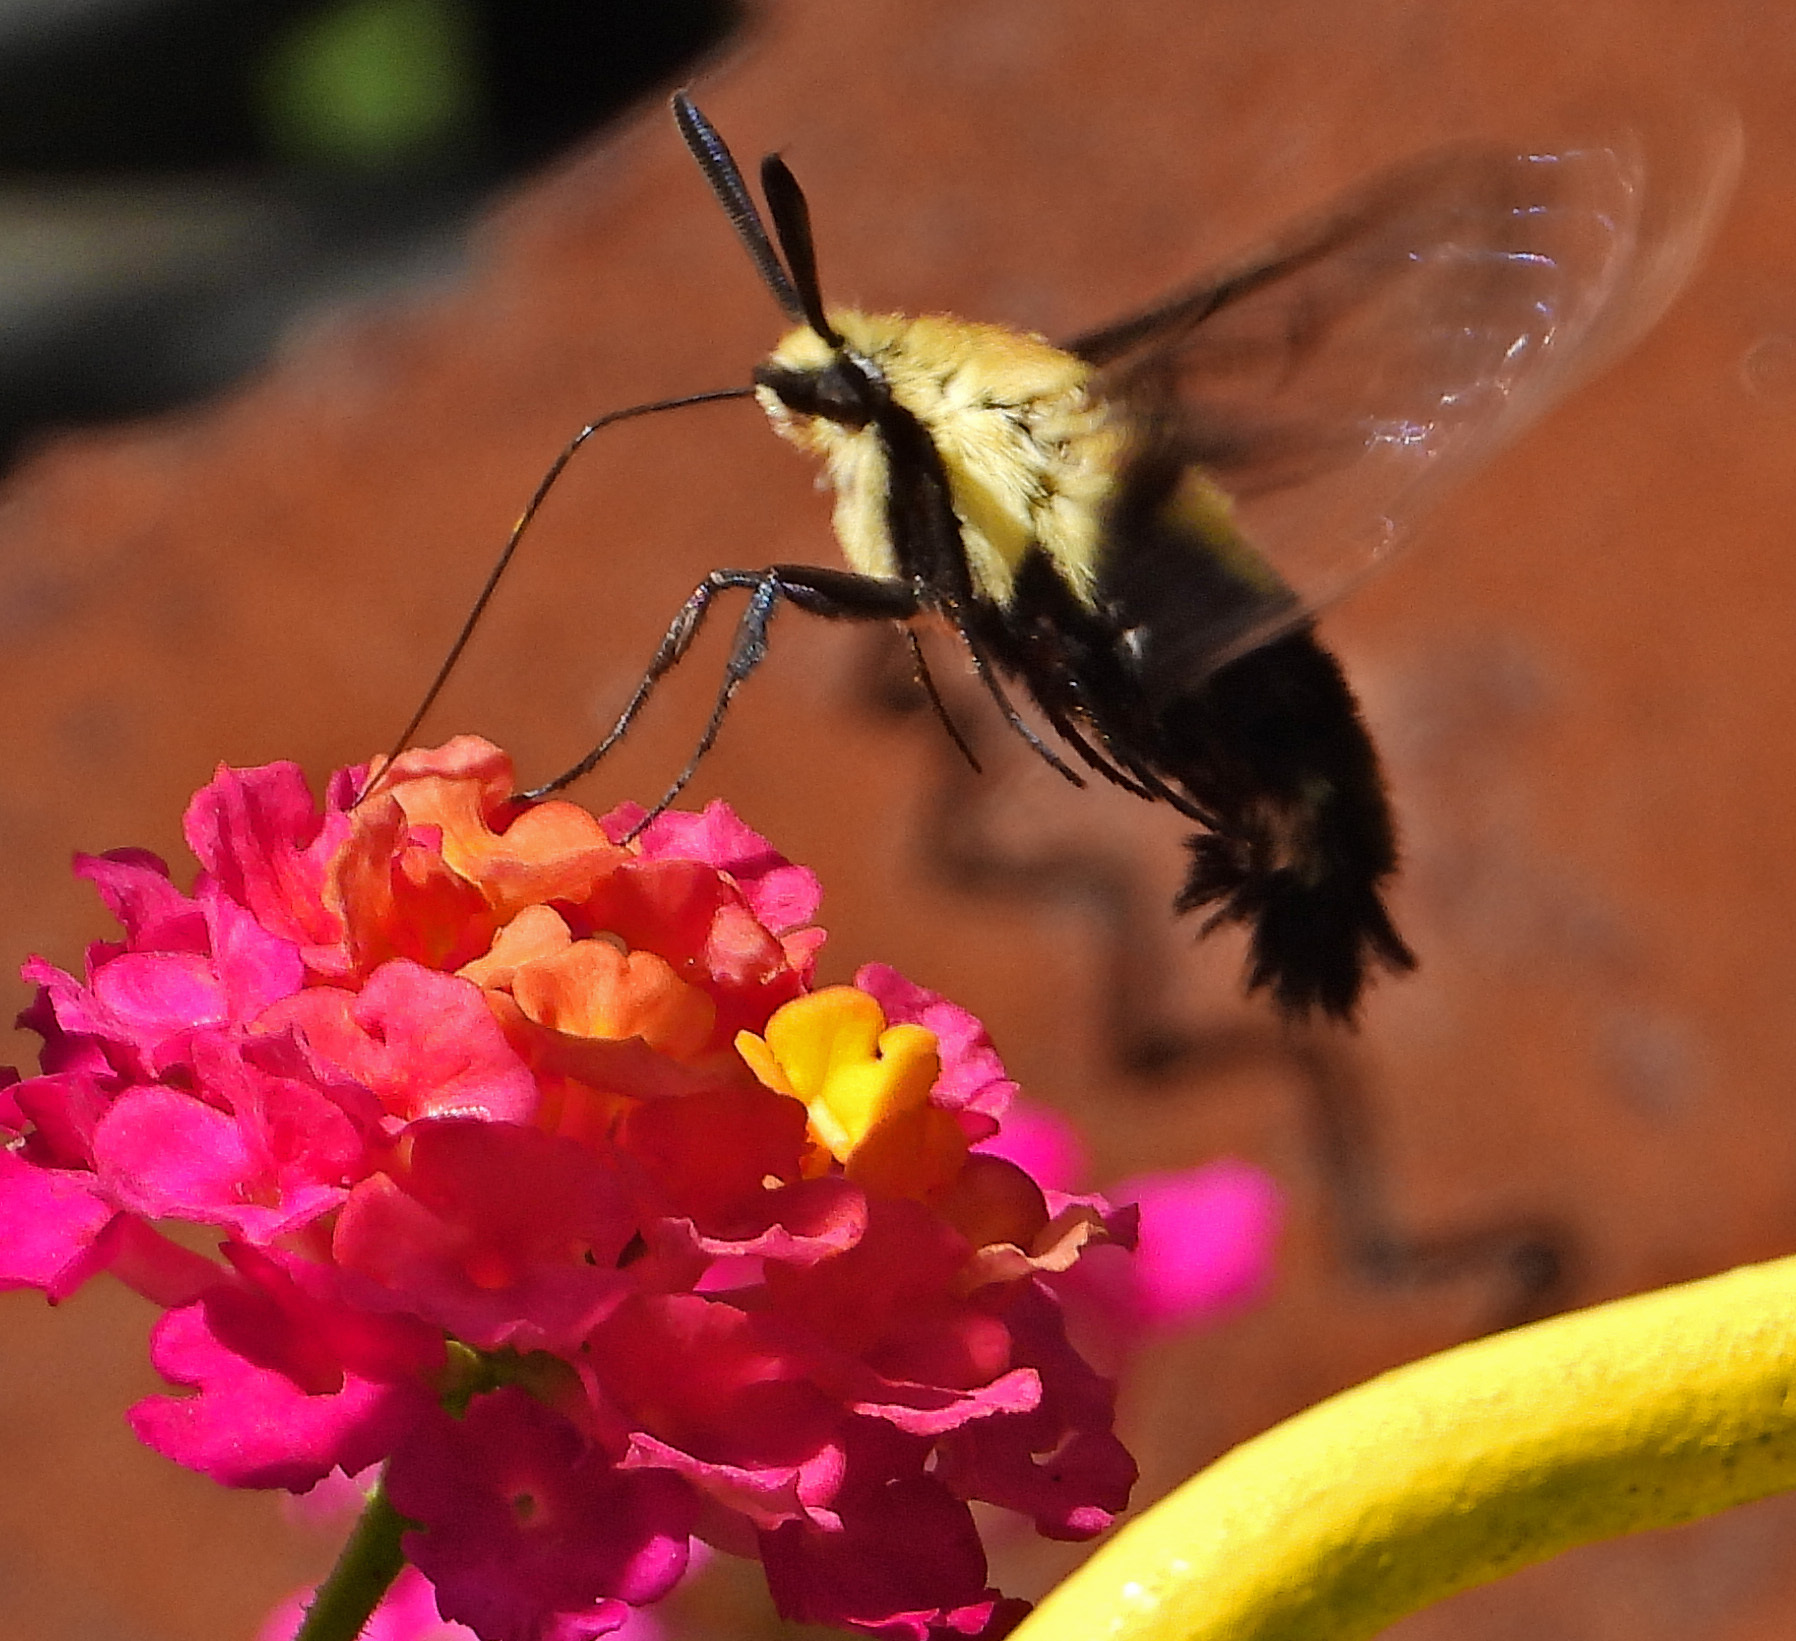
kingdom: Animalia
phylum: Arthropoda
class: Insecta
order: Lepidoptera
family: Sphingidae
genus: Hemaris
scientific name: Hemaris diffinis
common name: Bumblebee moth
